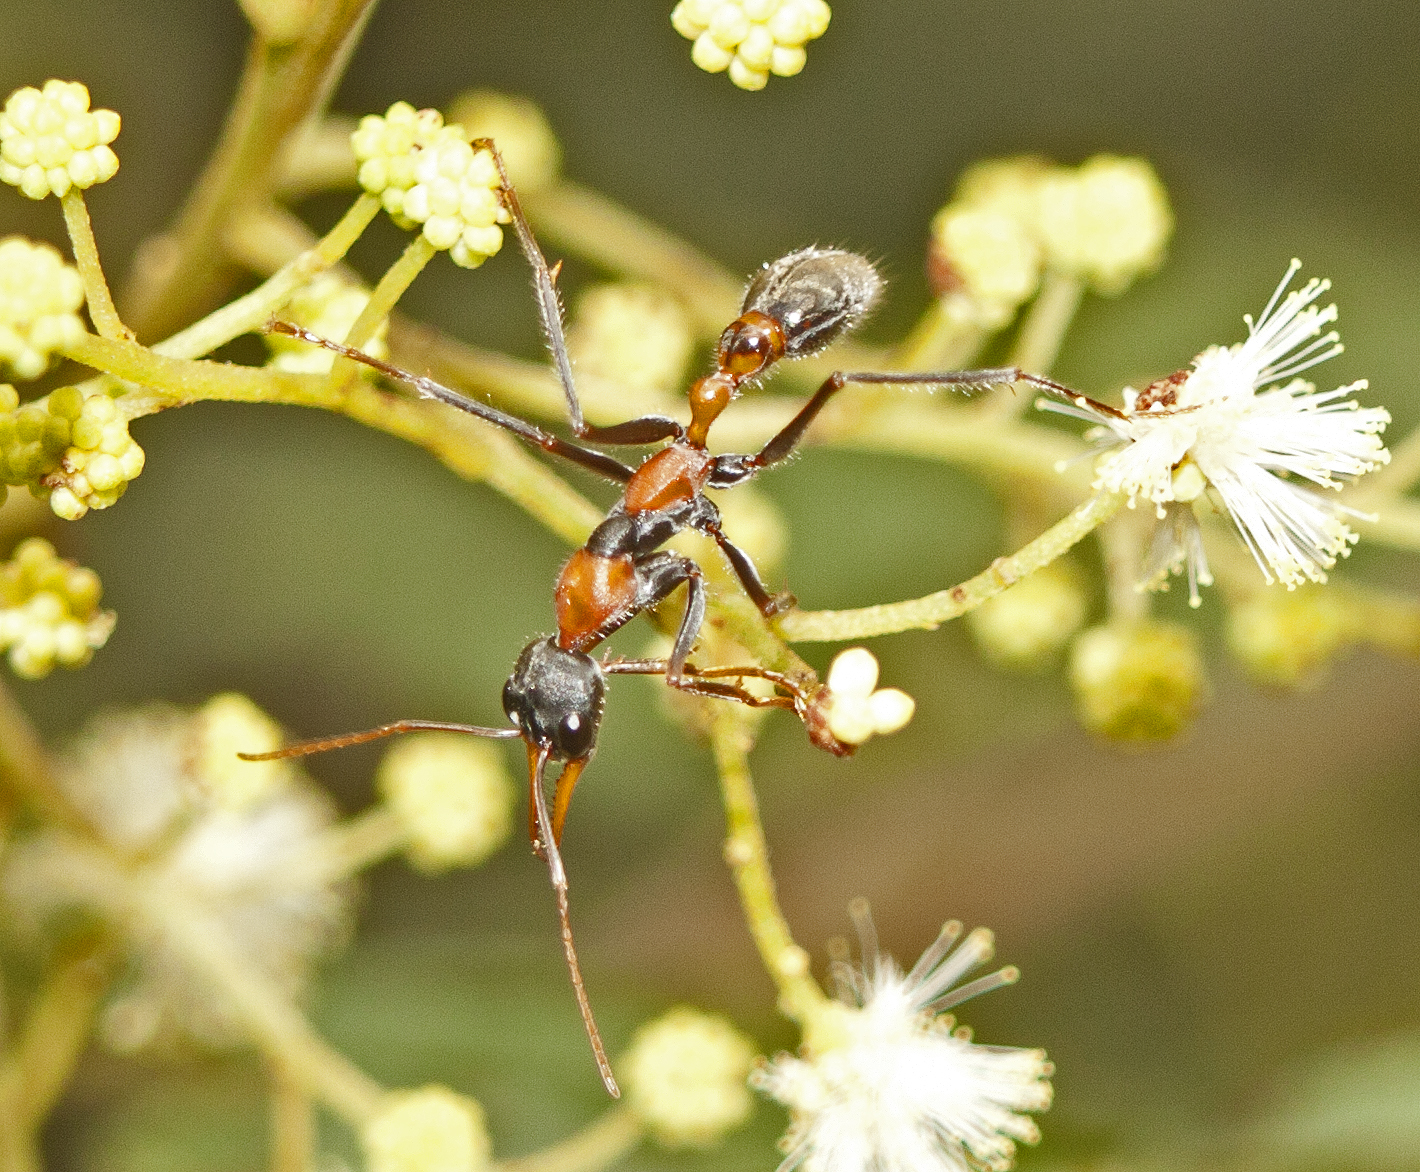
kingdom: Animalia
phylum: Arthropoda
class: Insecta
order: Hymenoptera
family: Formicidae
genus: Myrmecia
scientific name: Myrmecia nigrocincta
